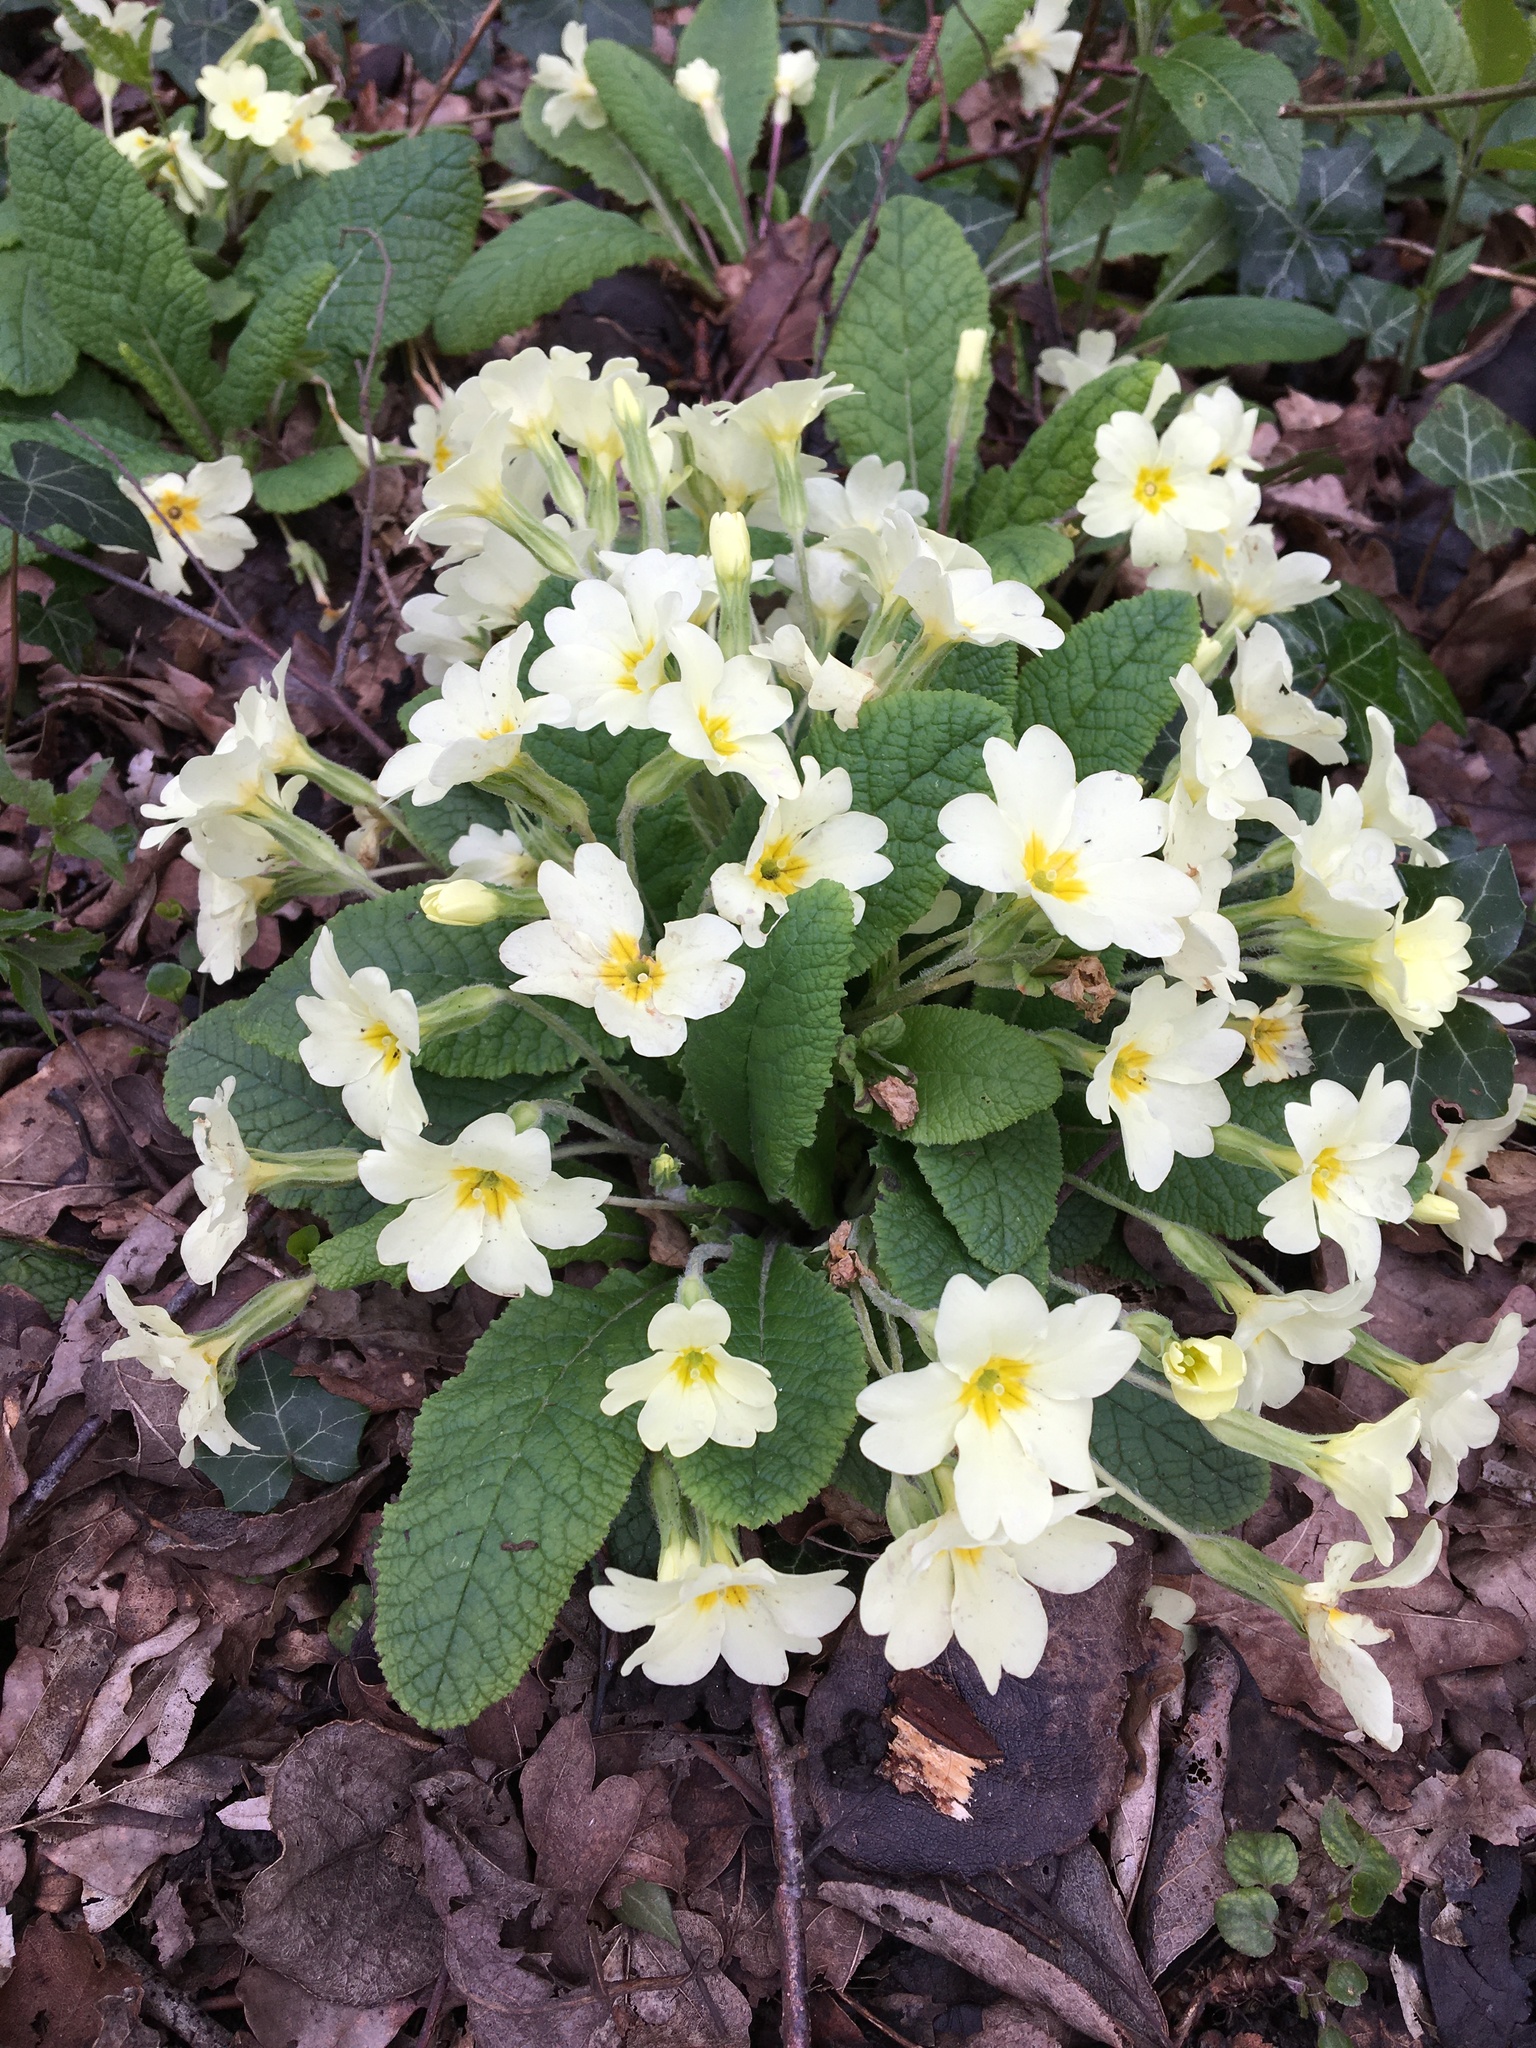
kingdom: Plantae
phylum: Tracheophyta
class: Magnoliopsida
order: Ericales
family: Primulaceae
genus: Primula
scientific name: Primula vulgaris
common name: Primrose
